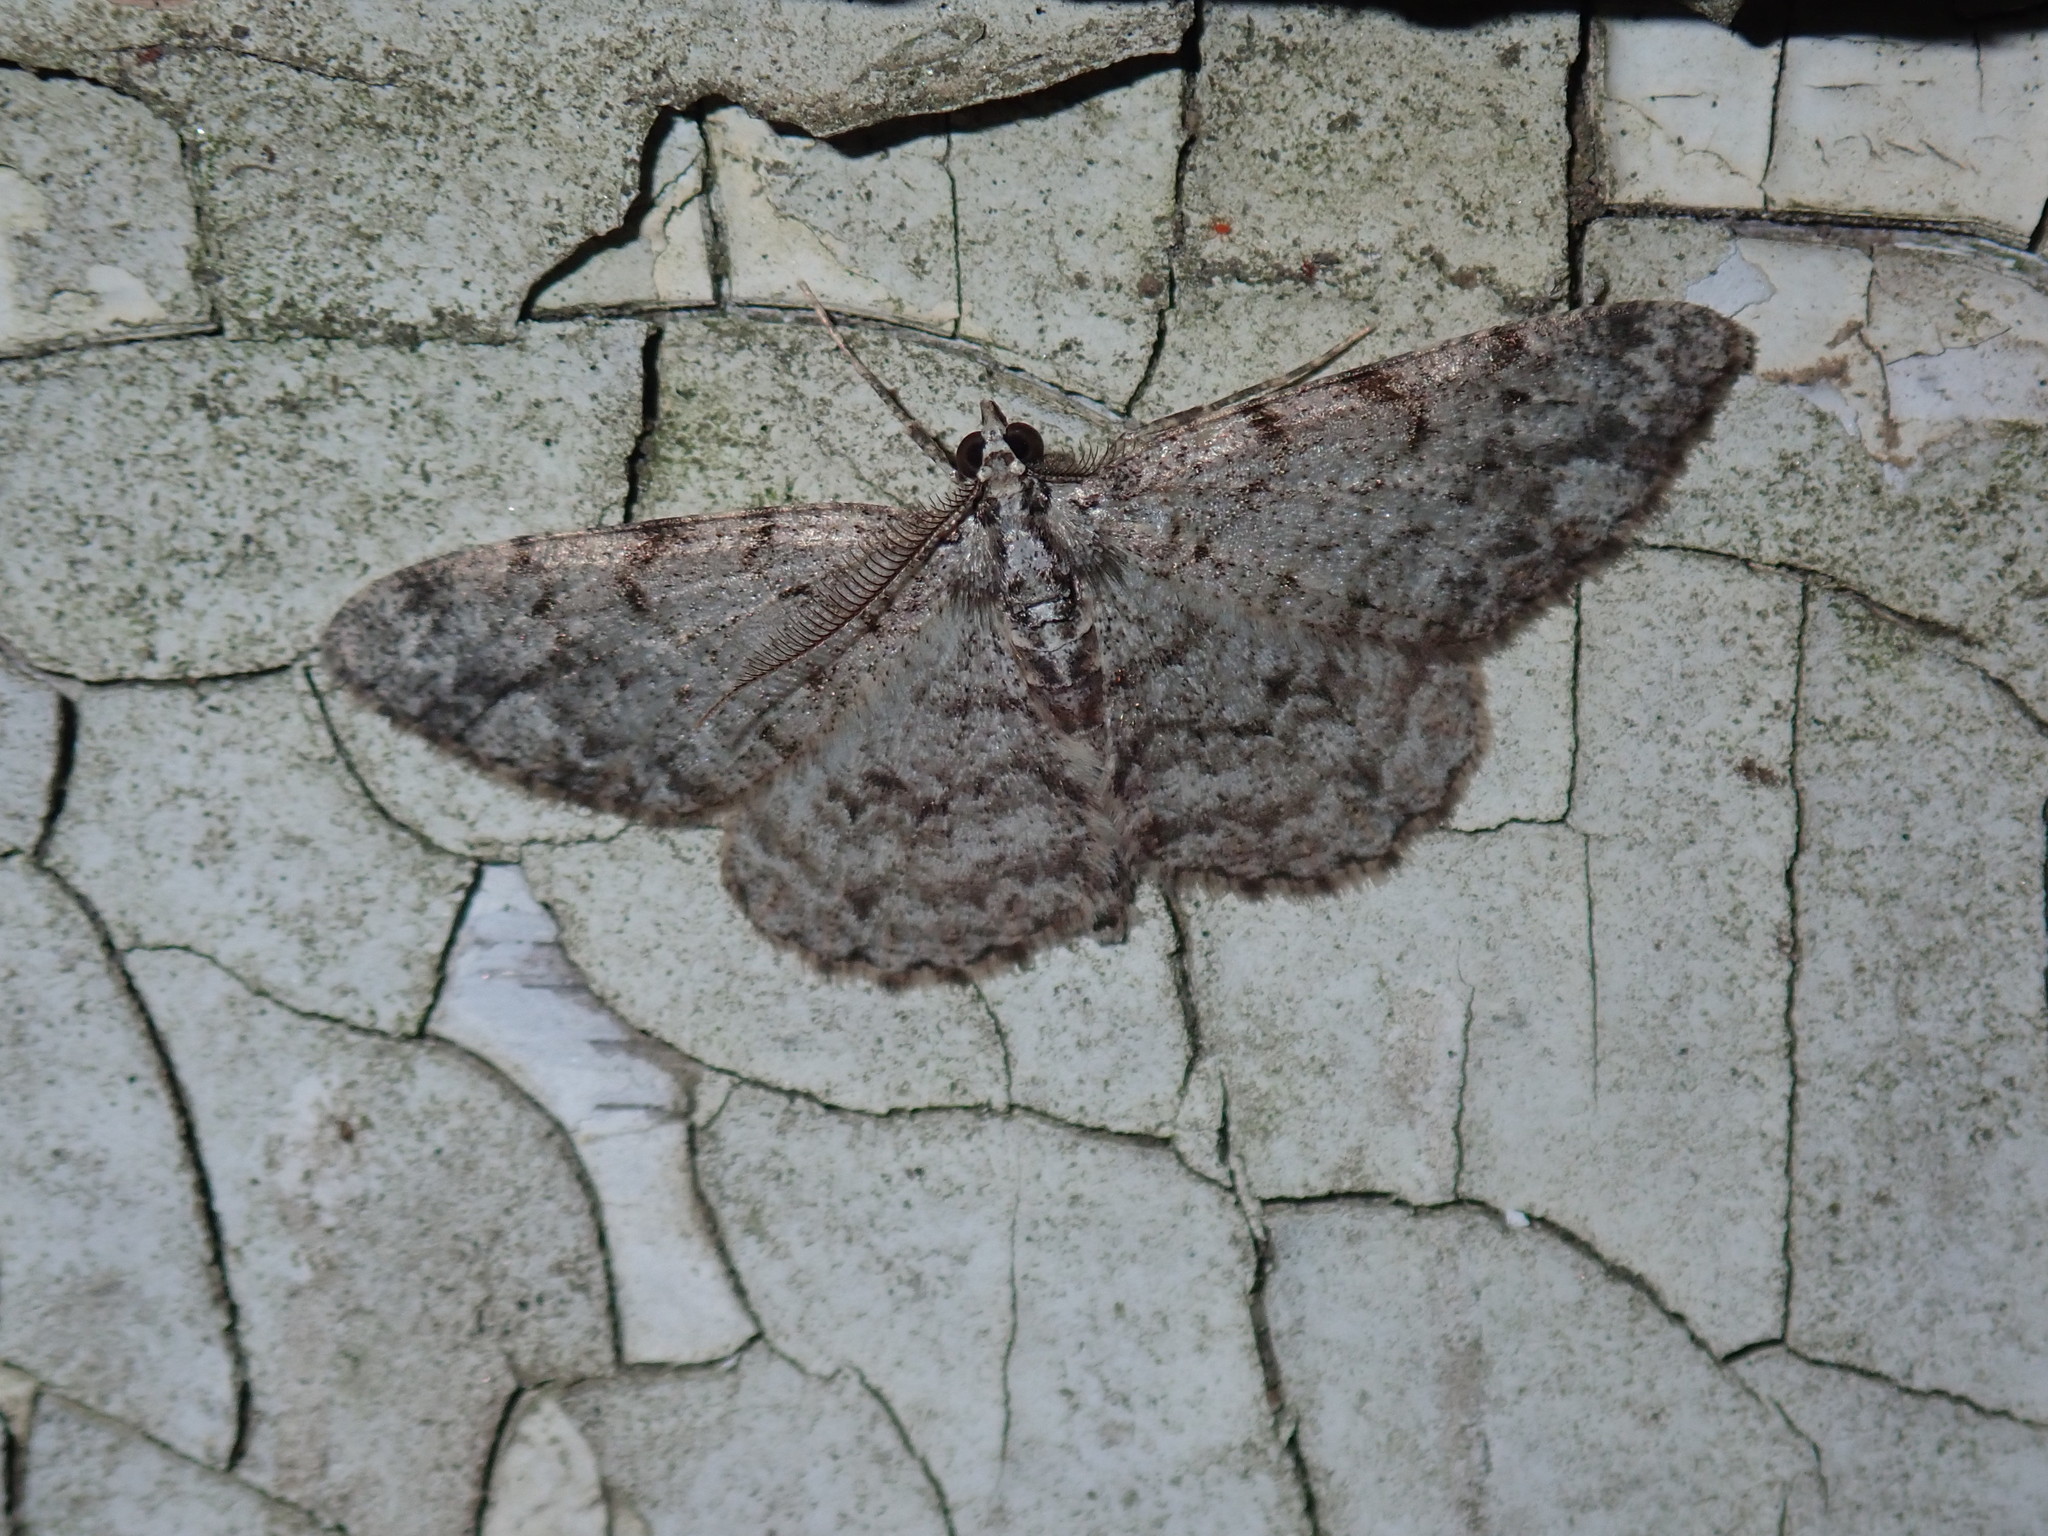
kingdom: Animalia
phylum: Arthropoda
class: Insecta
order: Lepidoptera
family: Geometridae
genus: Protoboarmia
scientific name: Protoboarmia porcelaria
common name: Porcelain gray
